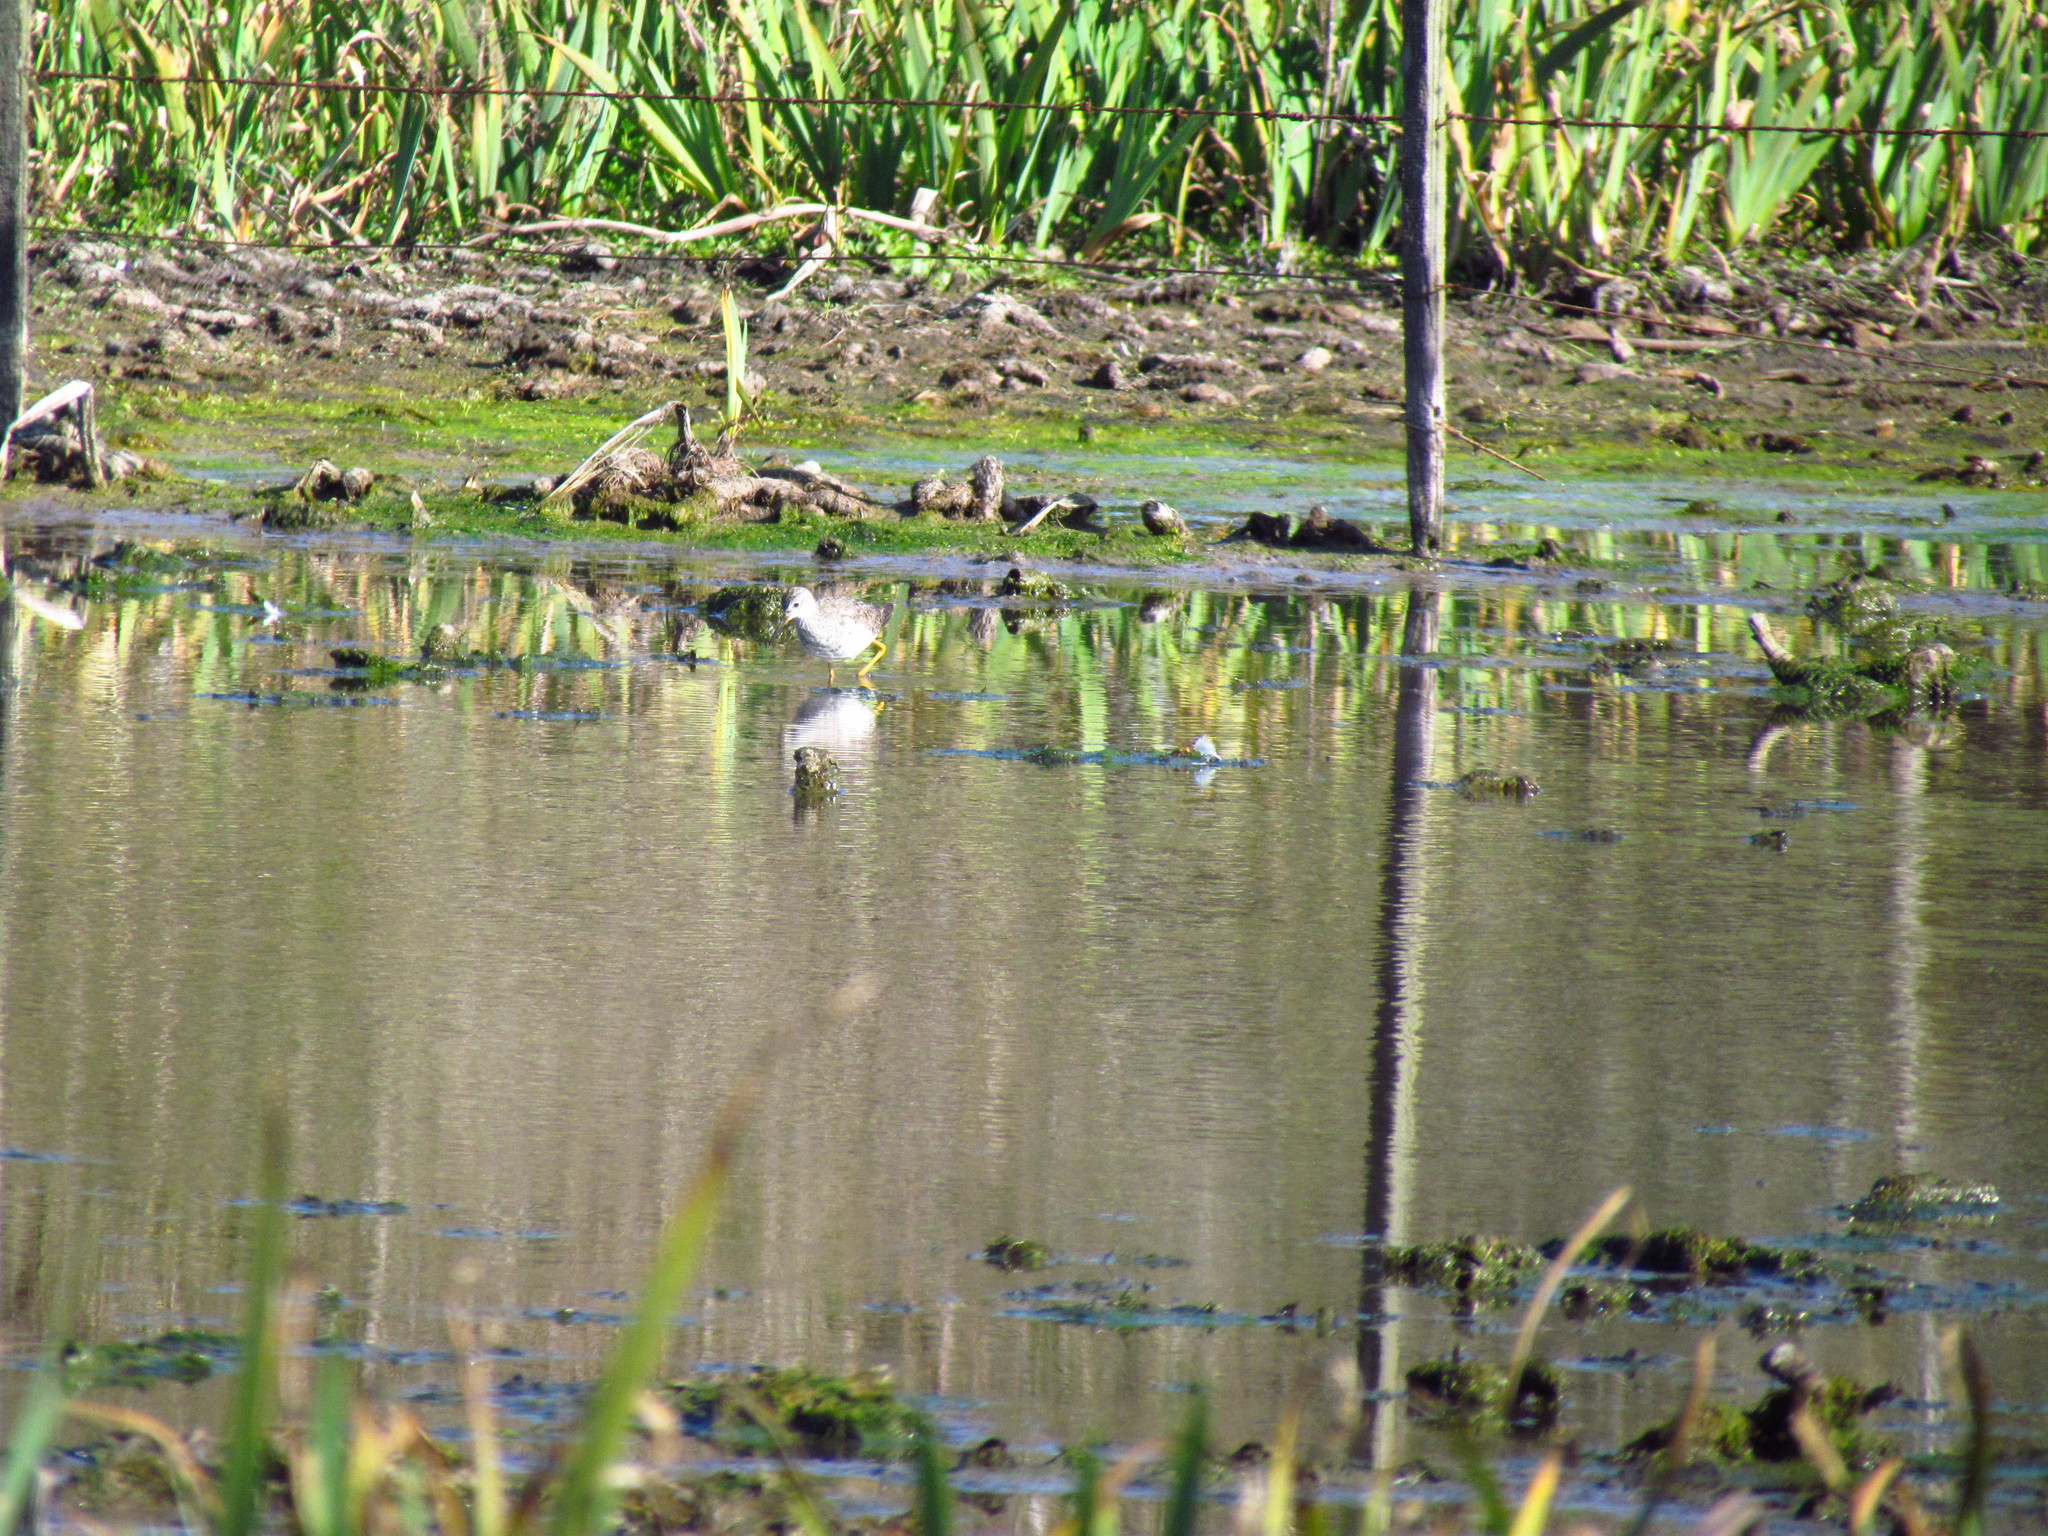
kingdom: Animalia
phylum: Chordata
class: Aves
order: Charadriiformes
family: Scolopacidae
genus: Tringa
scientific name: Tringa flavipes
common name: Lesser yellowlegs
